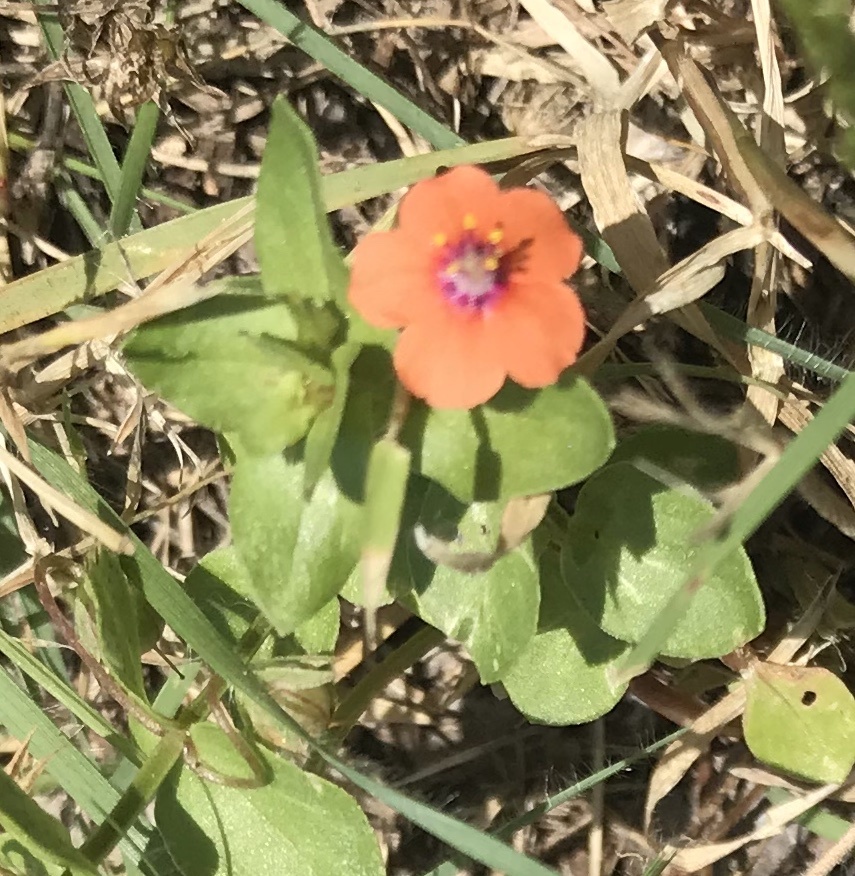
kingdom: Plantae
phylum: Tracheophyta
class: Magnoliopsida
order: Ericales
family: Primulaceae
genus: Lysimachia
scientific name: Lysimachia arvensis
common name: Scarlet pimpernel
